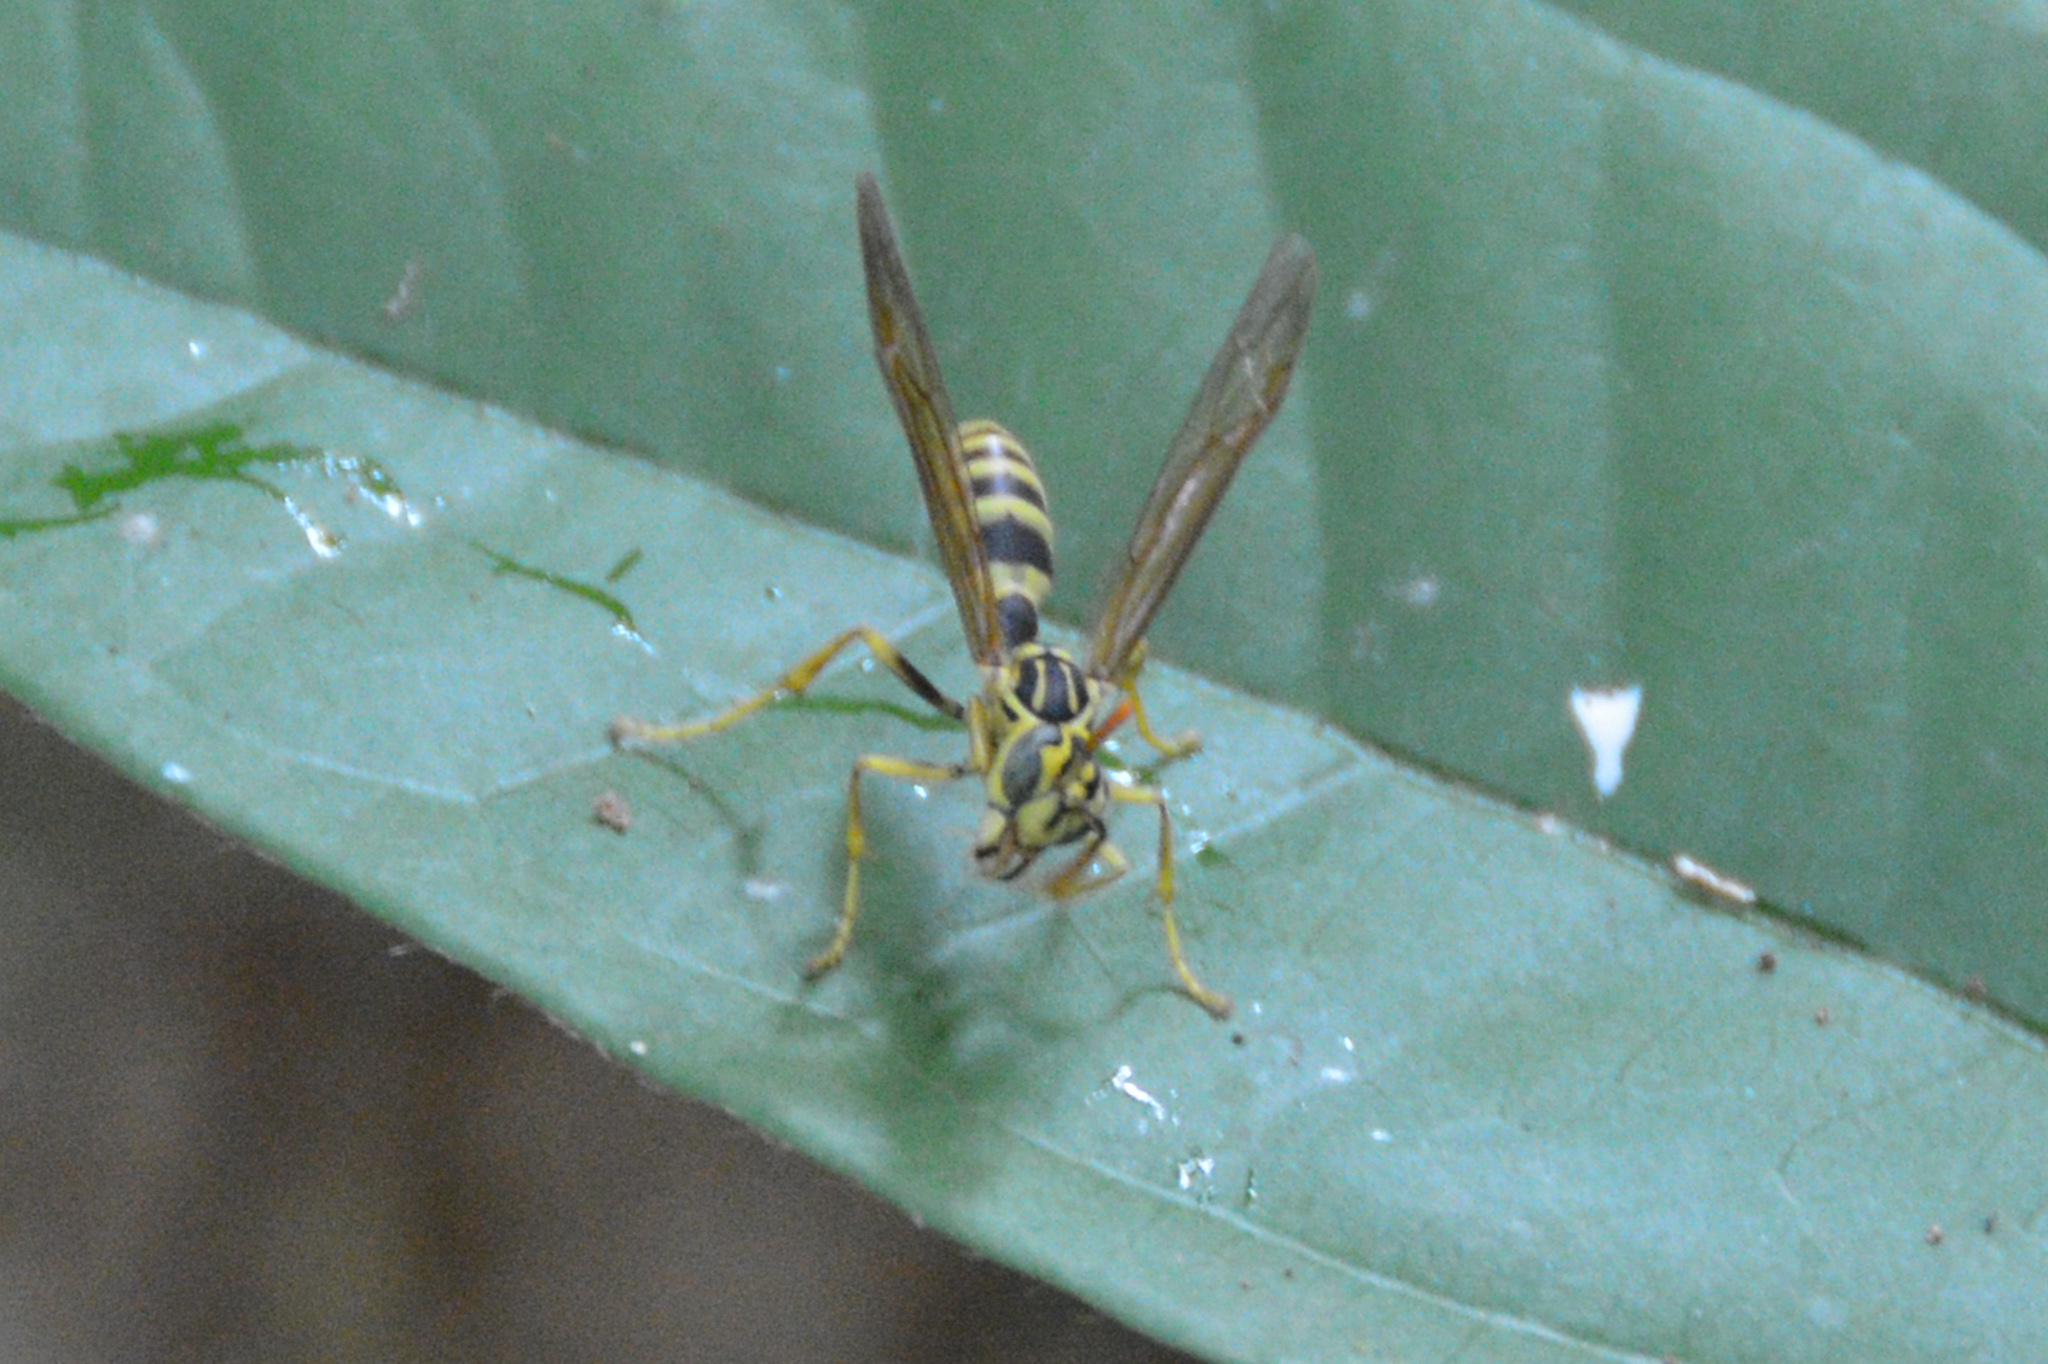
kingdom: Animalia
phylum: Arthropoda
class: Insecta
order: Hymenoptera
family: Vespidae
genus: Agelaia
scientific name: Agelaia areata
